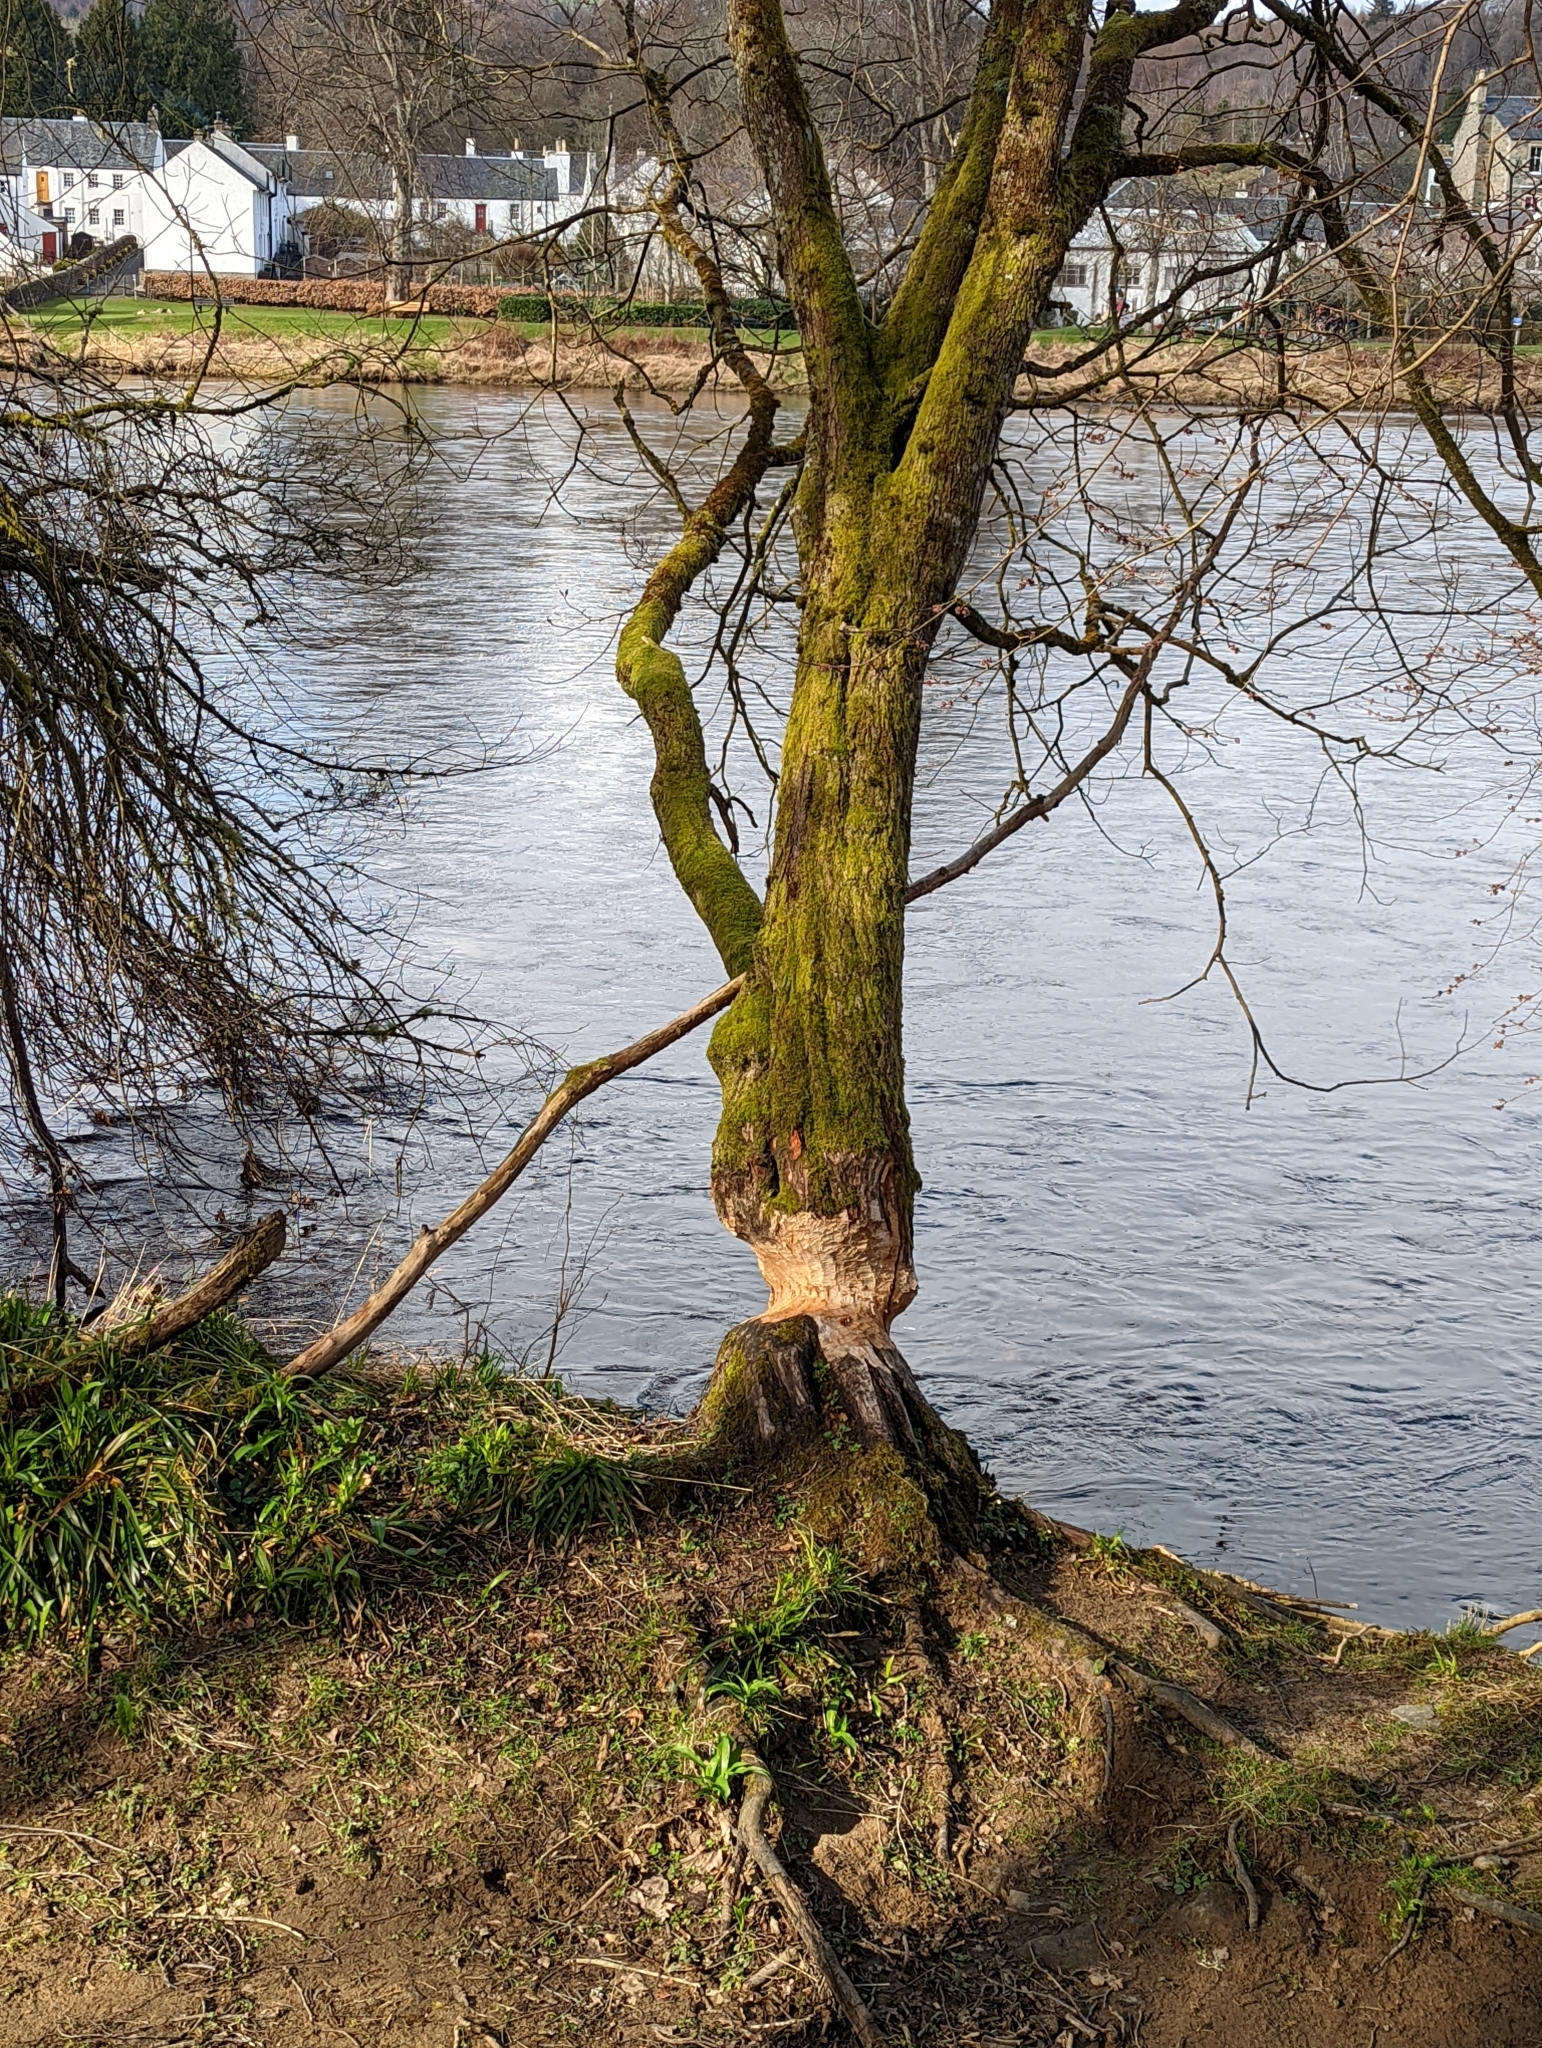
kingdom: Animalia
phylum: Chordata
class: Mammalia
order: Rodentia
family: Castoridae
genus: Castor
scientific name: Castor fiber
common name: Eurasian beaver
